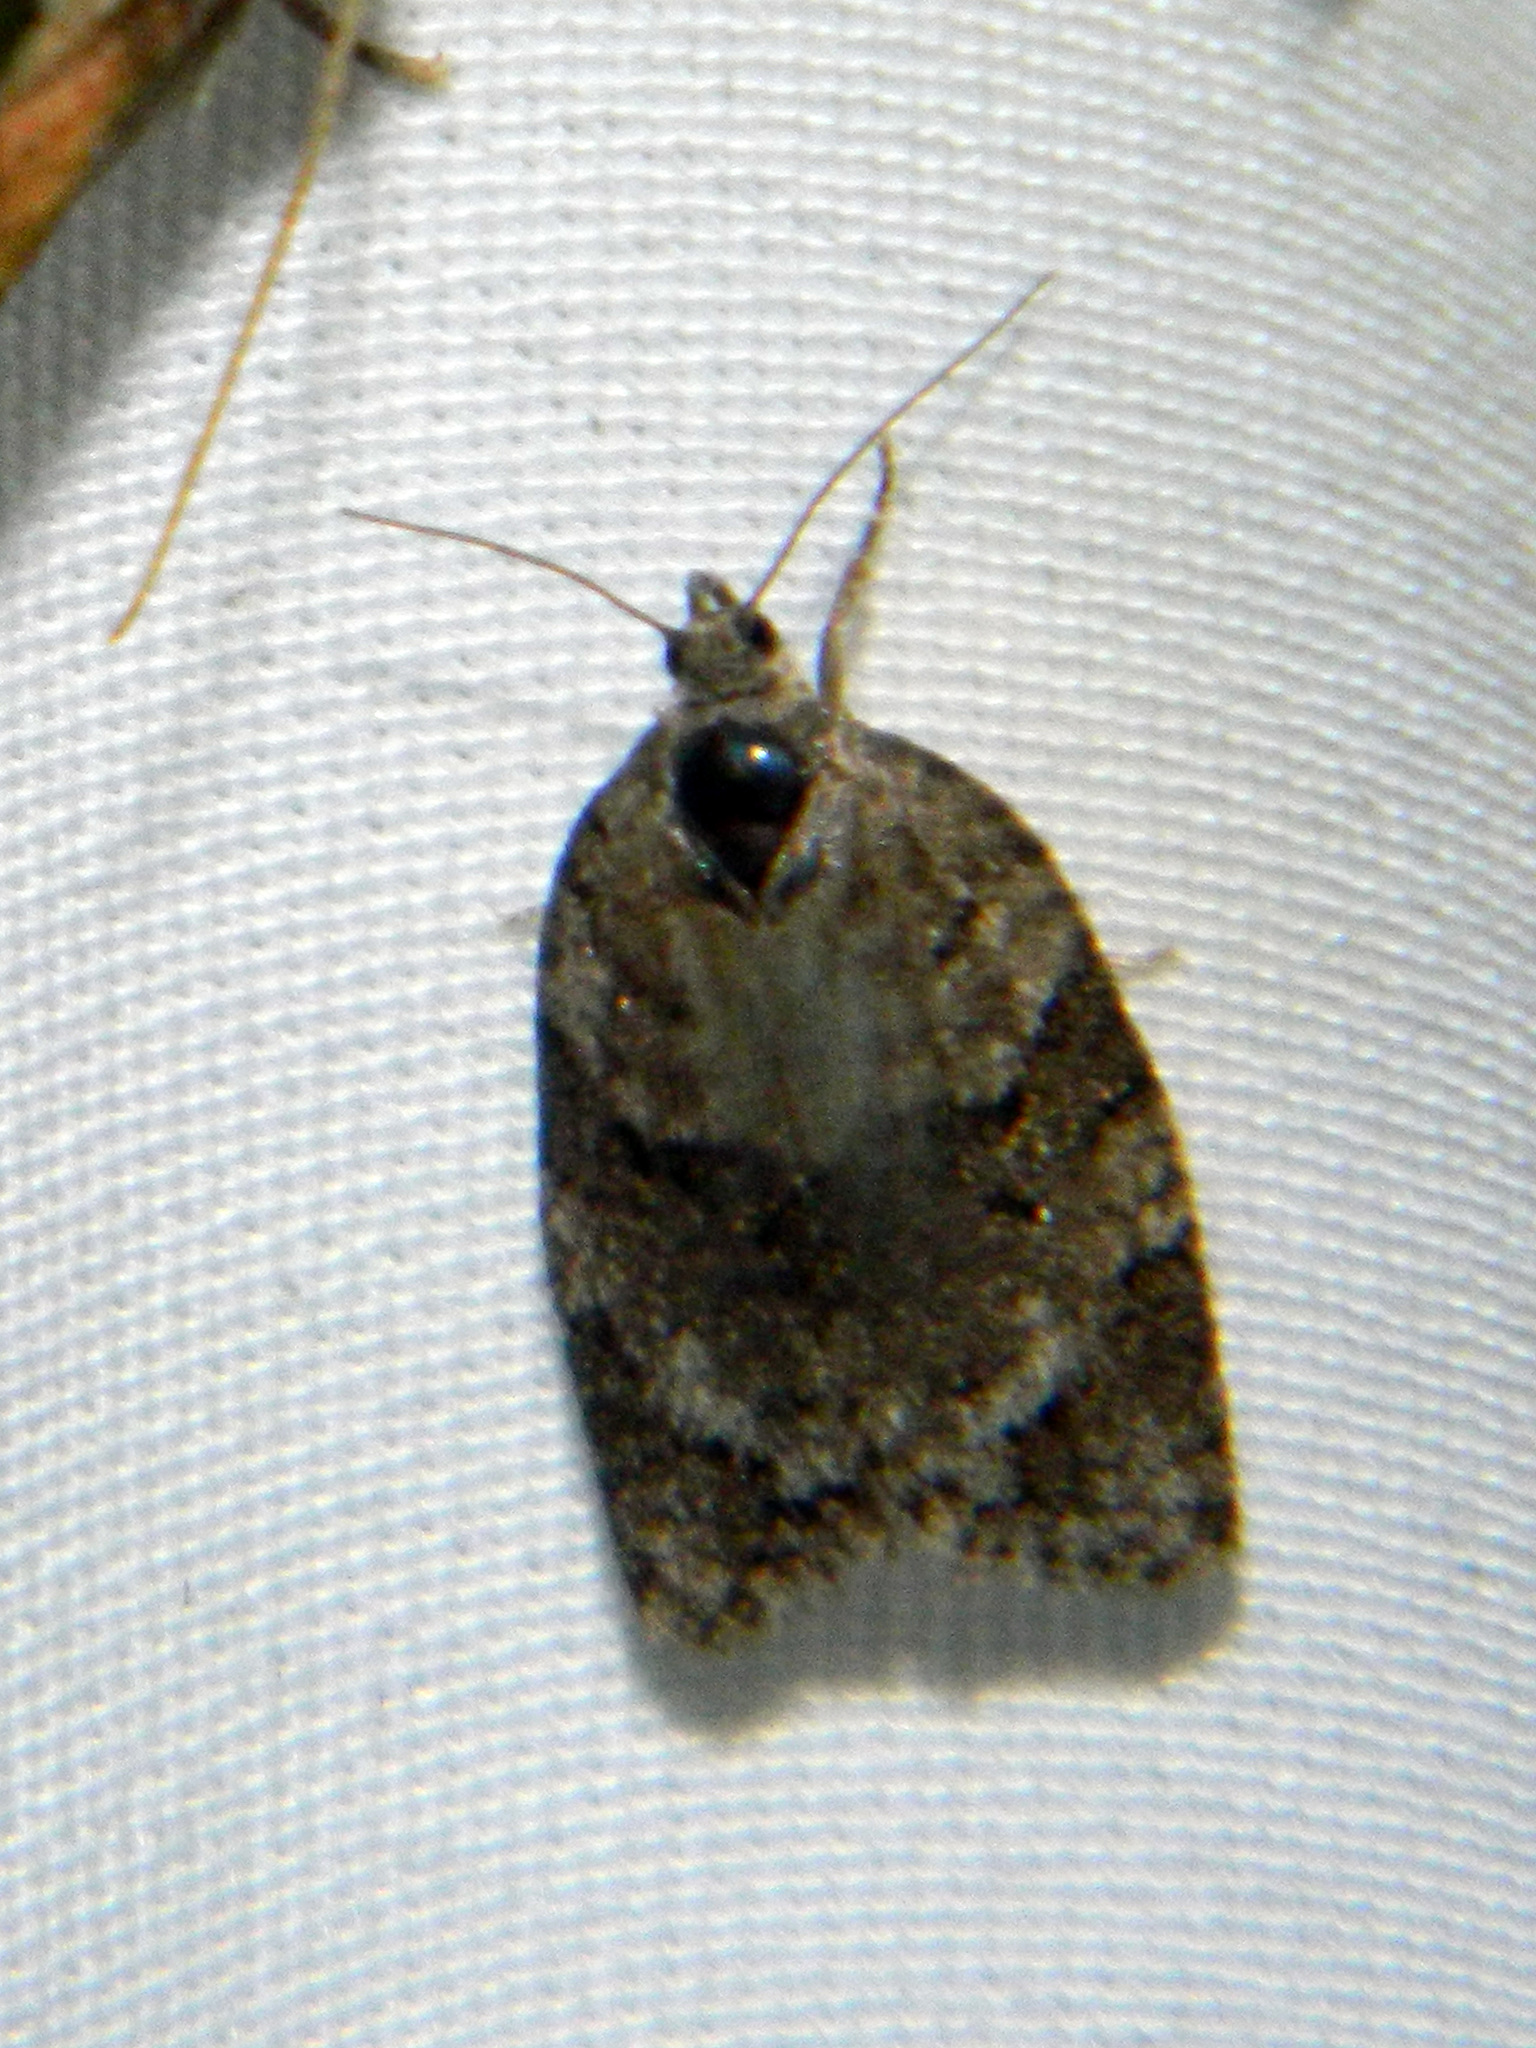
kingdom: Animalia
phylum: Arthropoda
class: Insecta
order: Lepidoptera
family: Tortricidae
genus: Syndemis
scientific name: Syndemis afflictana
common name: Gray leafroller moth
